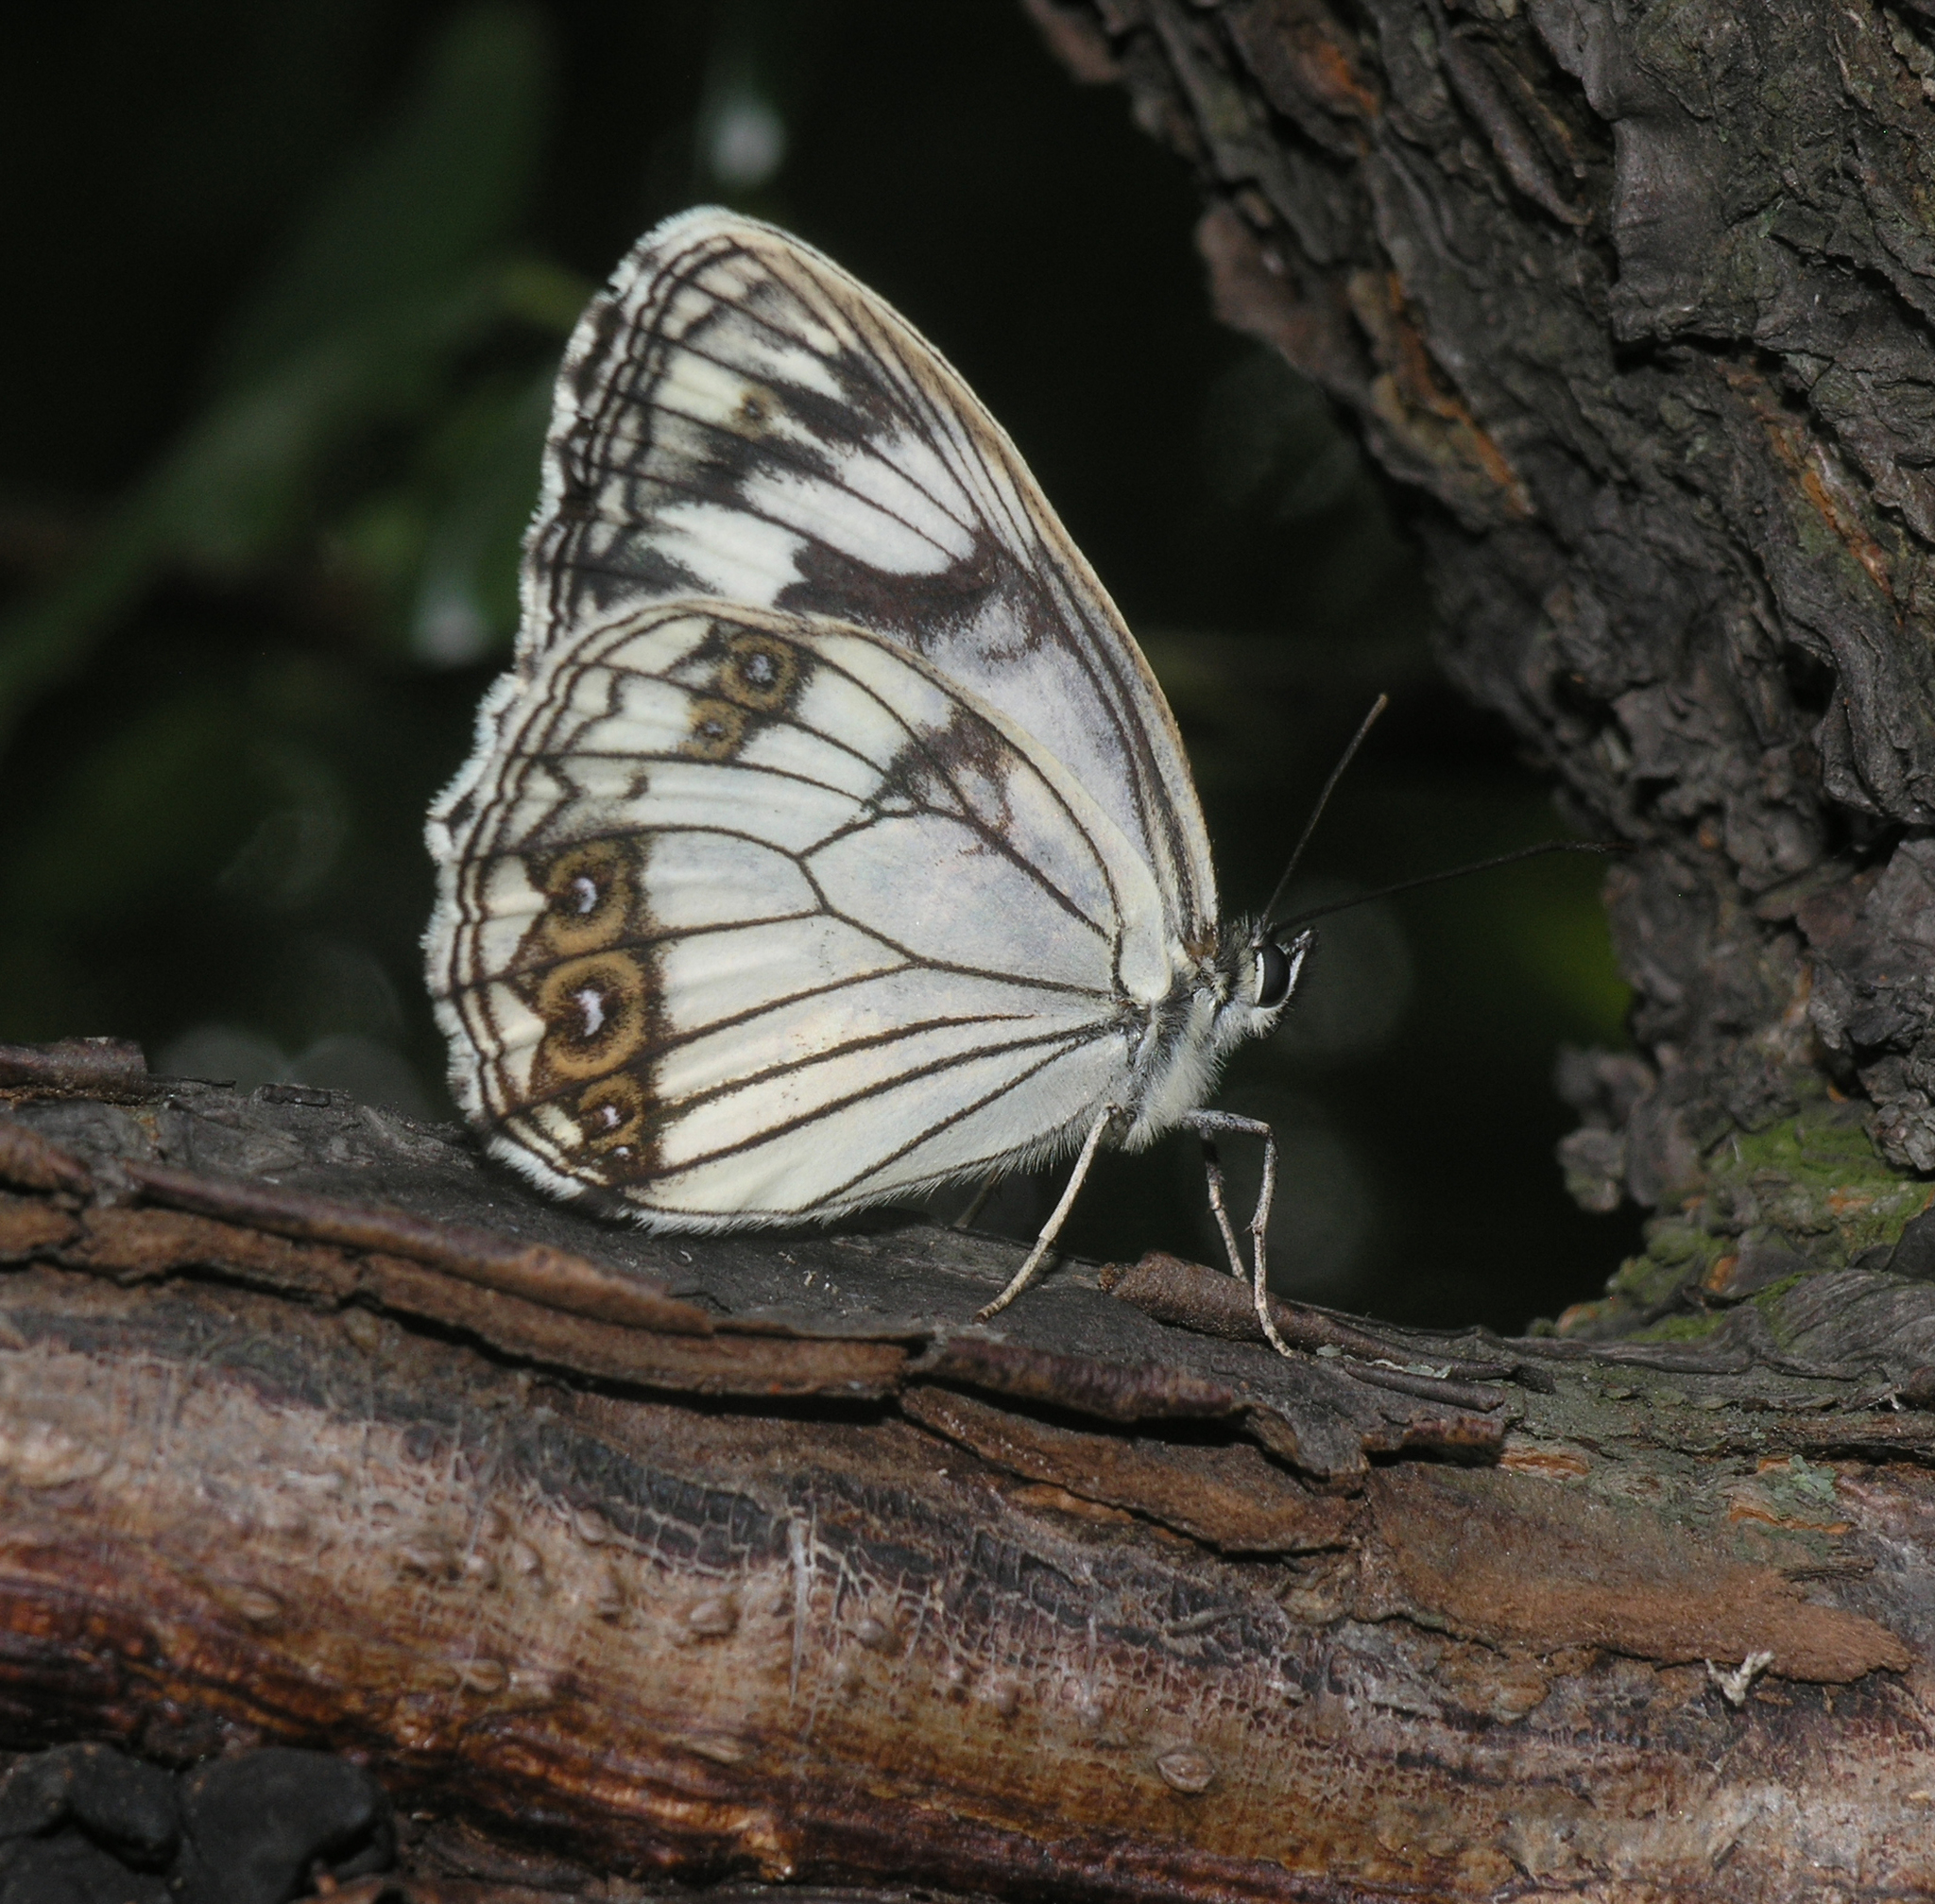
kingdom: Animalia
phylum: Arthropoda
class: Insecta
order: Lepidoptera
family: Nymphalidae
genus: Melanargia
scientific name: Melanargia halimede
